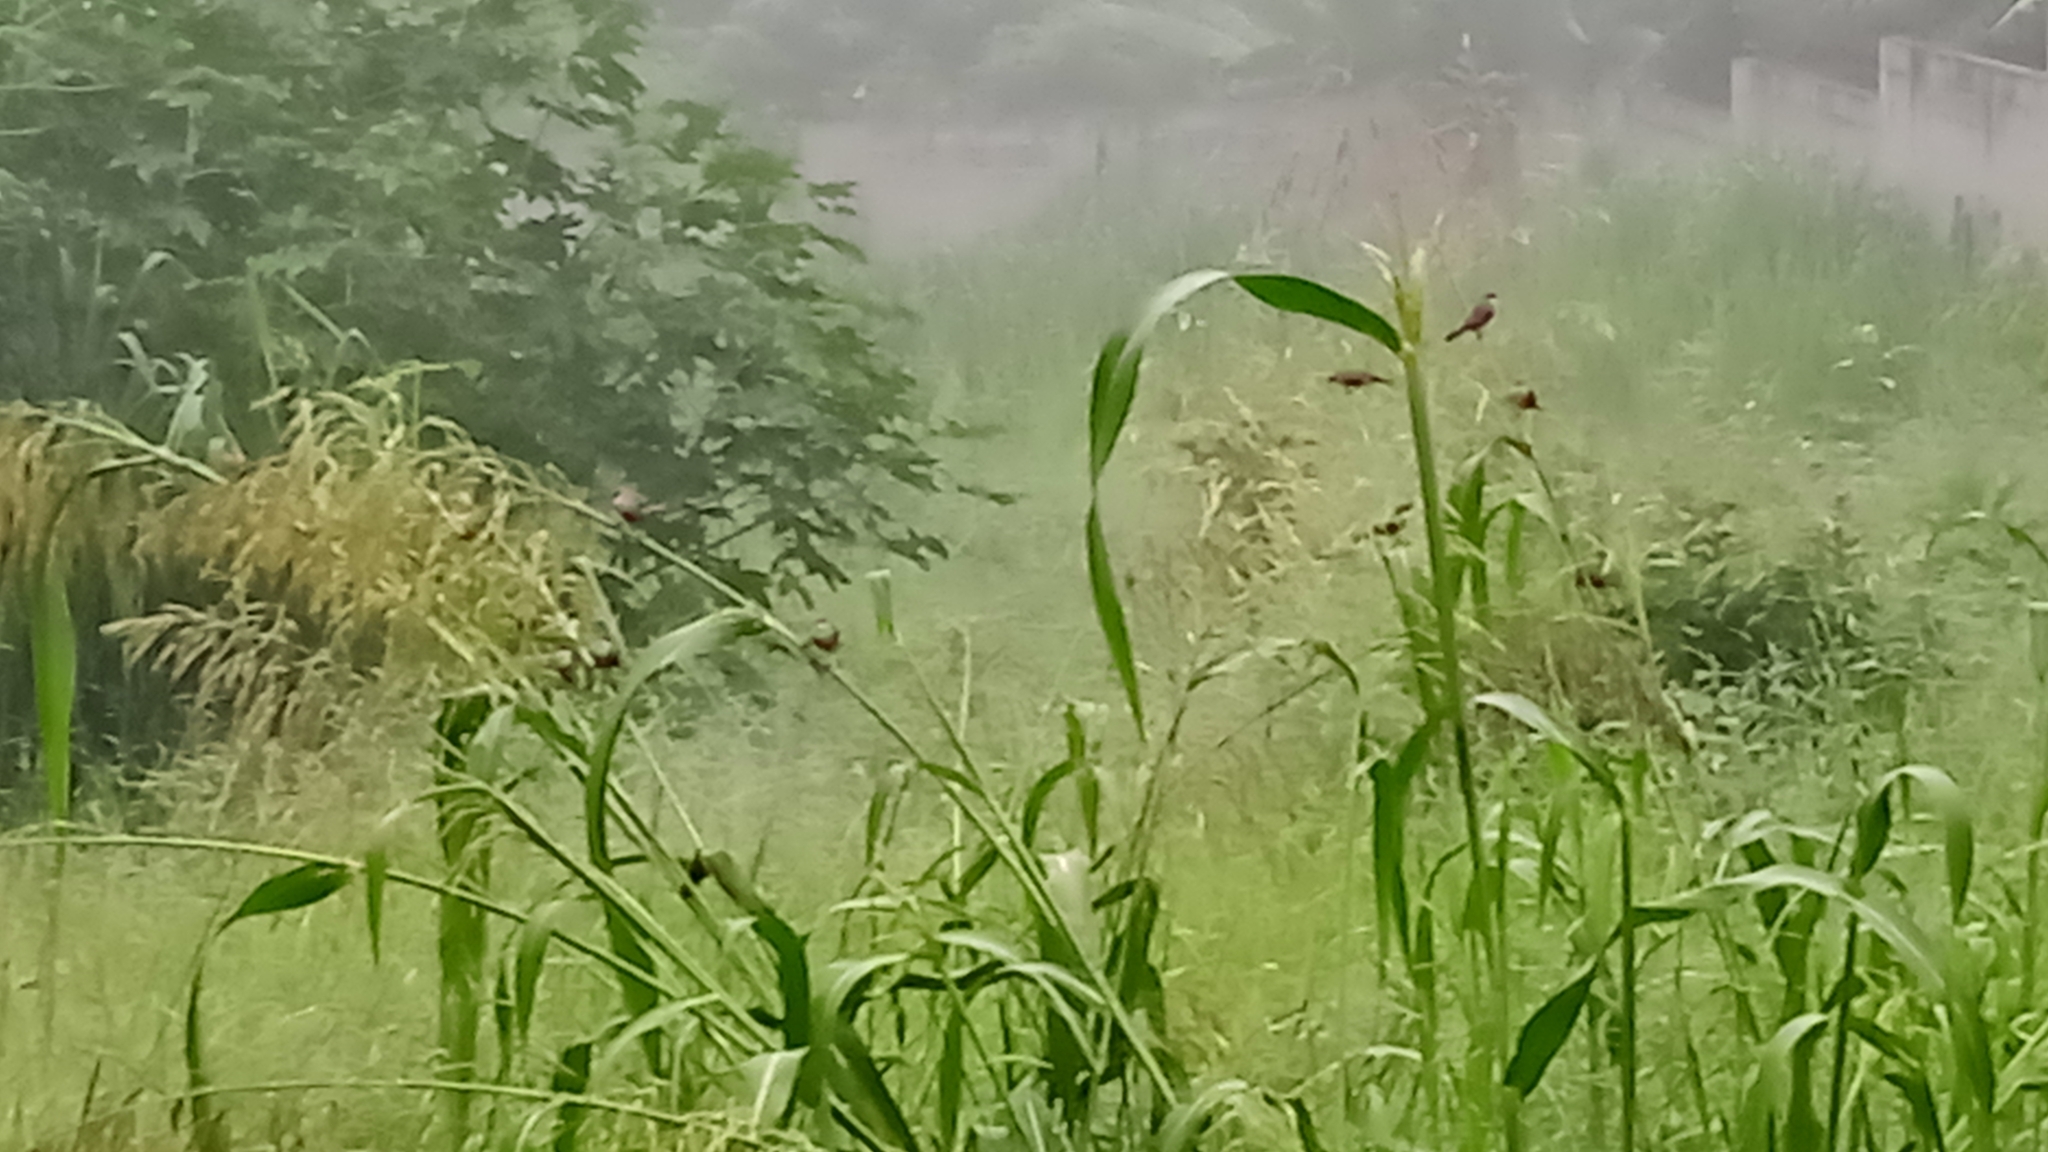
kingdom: Animalia
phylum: Chordata
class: Aves
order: Passeriformes
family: Estrildidae
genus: Estrilda
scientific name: Estrilda astrild
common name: Common waxbill
